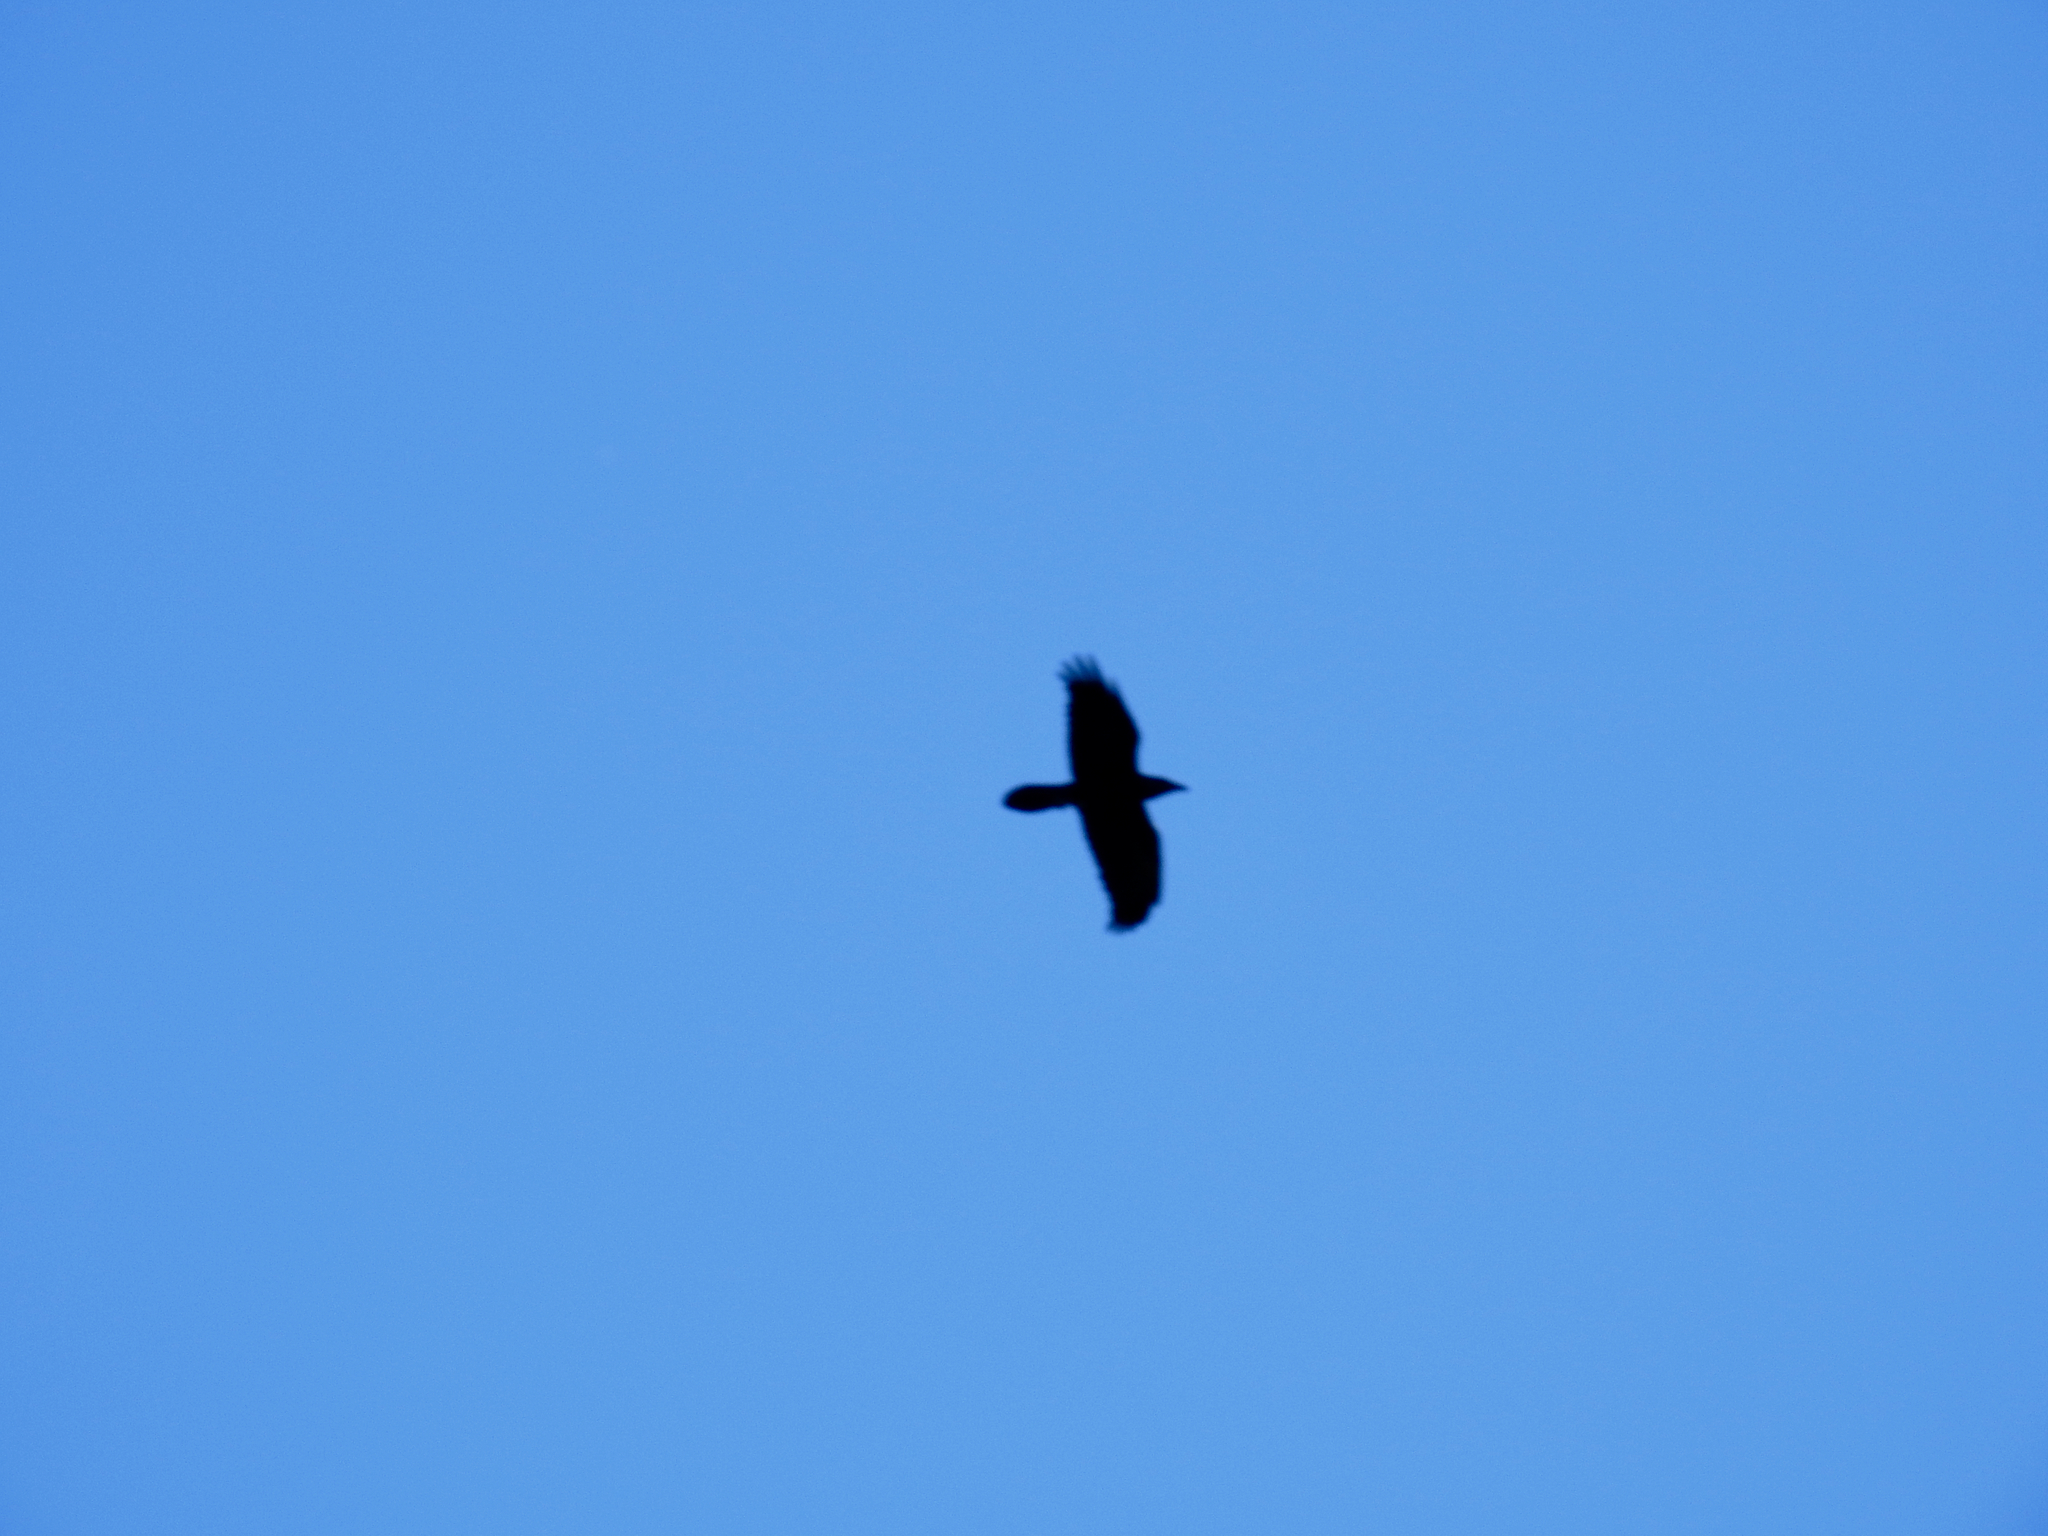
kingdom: Animalia
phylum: Chordata
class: Aves
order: Passeriformes
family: Corvidae
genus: Corvus
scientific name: Corvus corax
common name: Common raven
